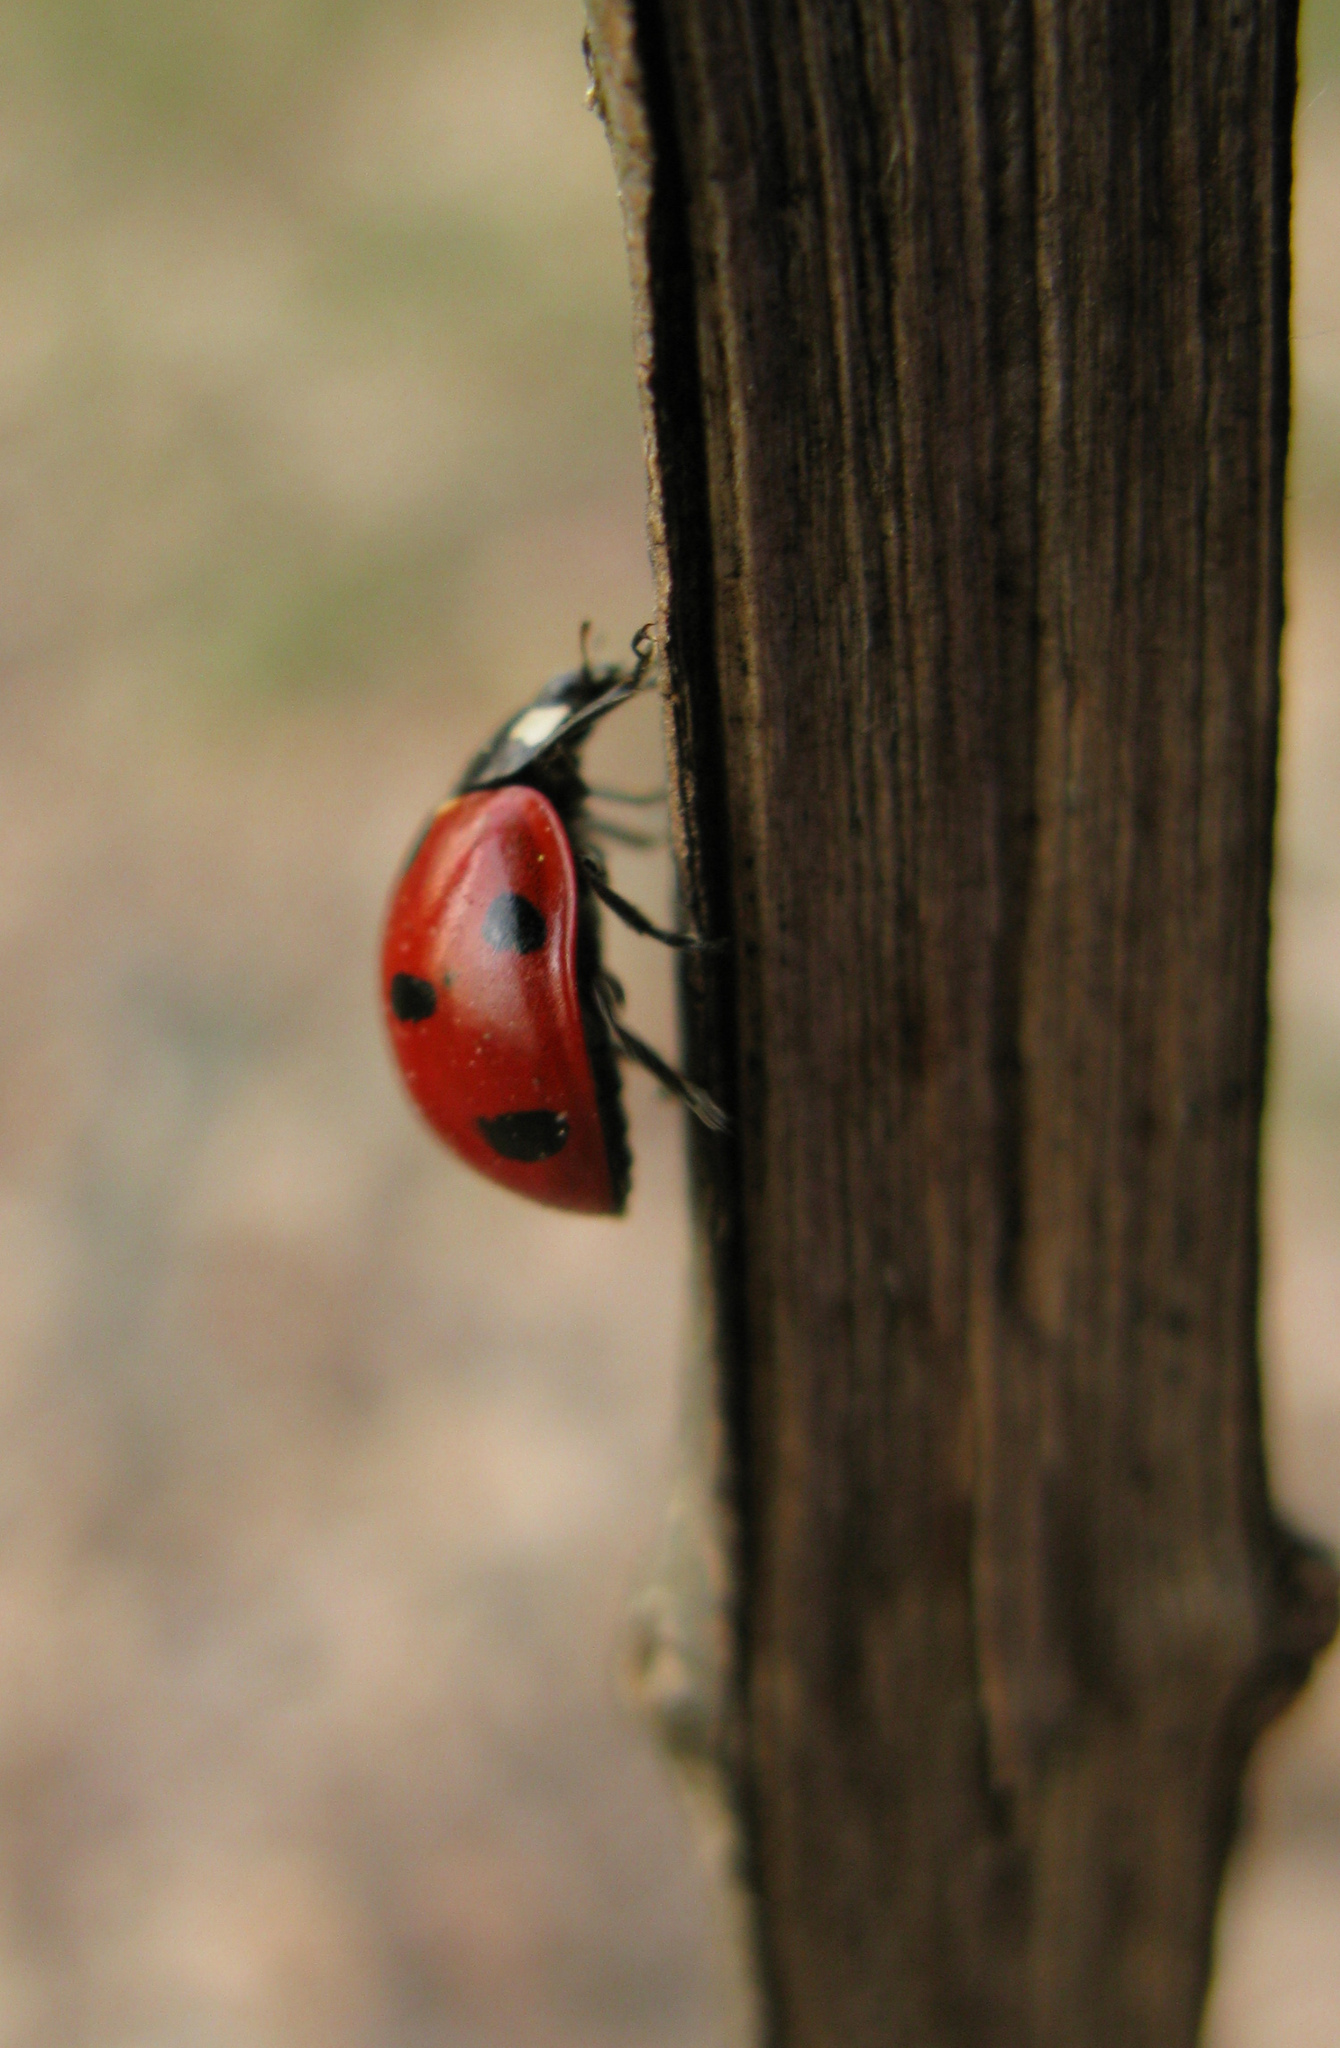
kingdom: Animalia
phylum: Arthropoda
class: Insecta
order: Coleoptera
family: Coccinellidae
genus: Coccinella
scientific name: Coccinella septempunctata
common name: Sevenspotted lady beetle
